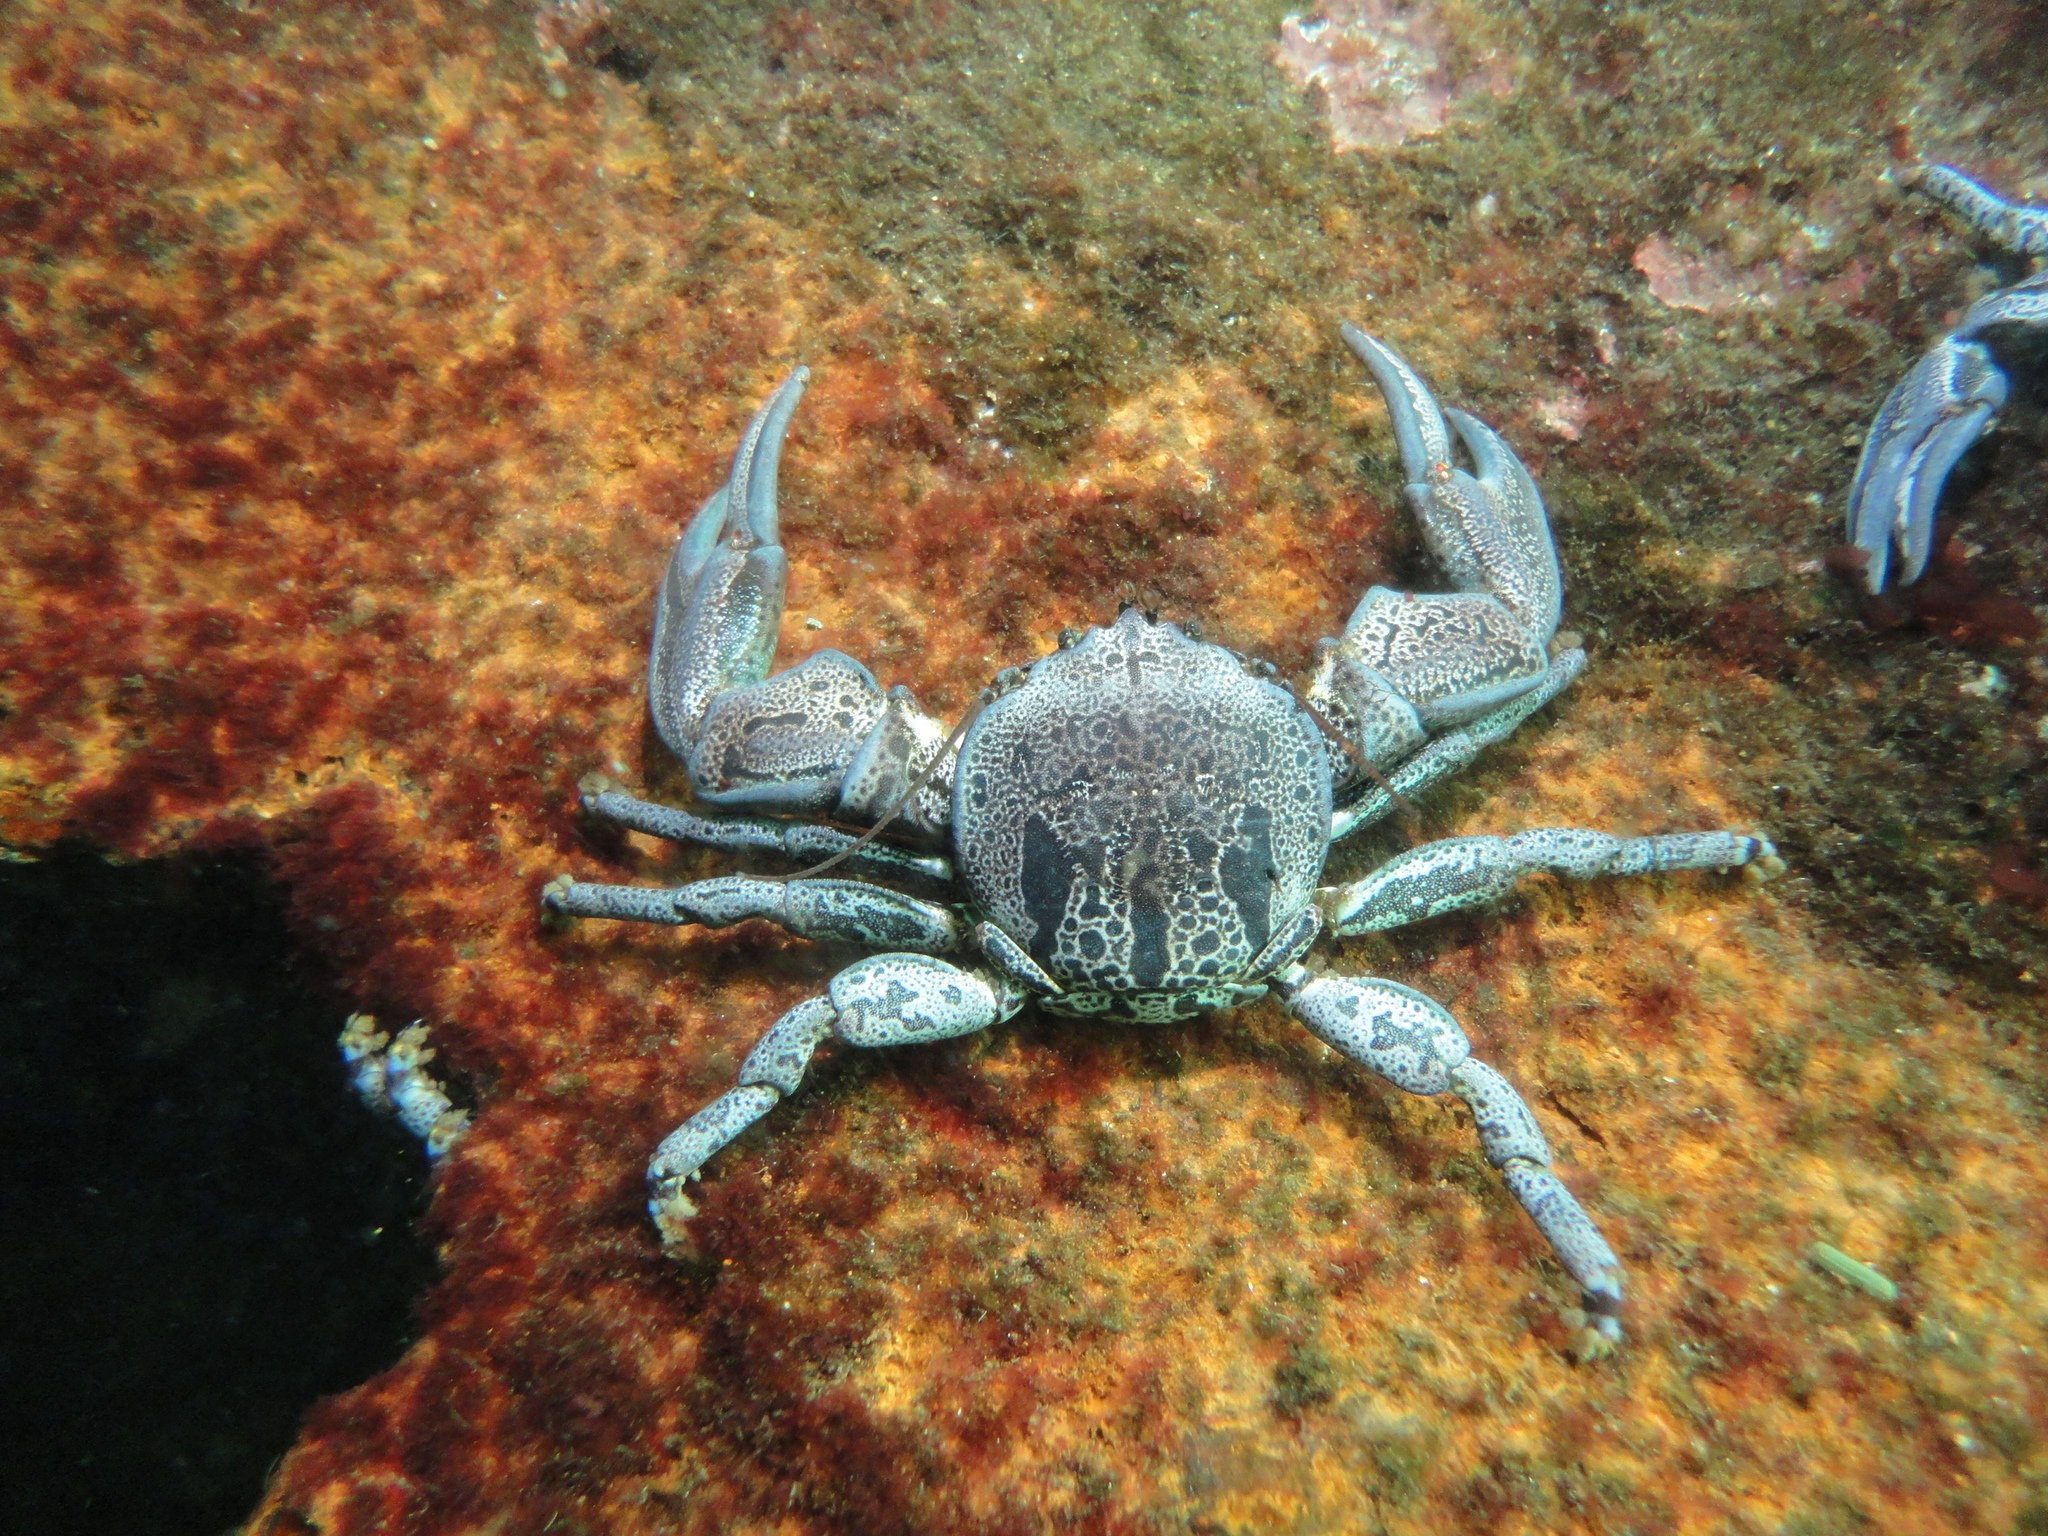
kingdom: Animalia
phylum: Arthropoda
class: Malacostraca
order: Decapoda
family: Porcellanidae
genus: Petrolisthes
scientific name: Petrolisthes punctatus
